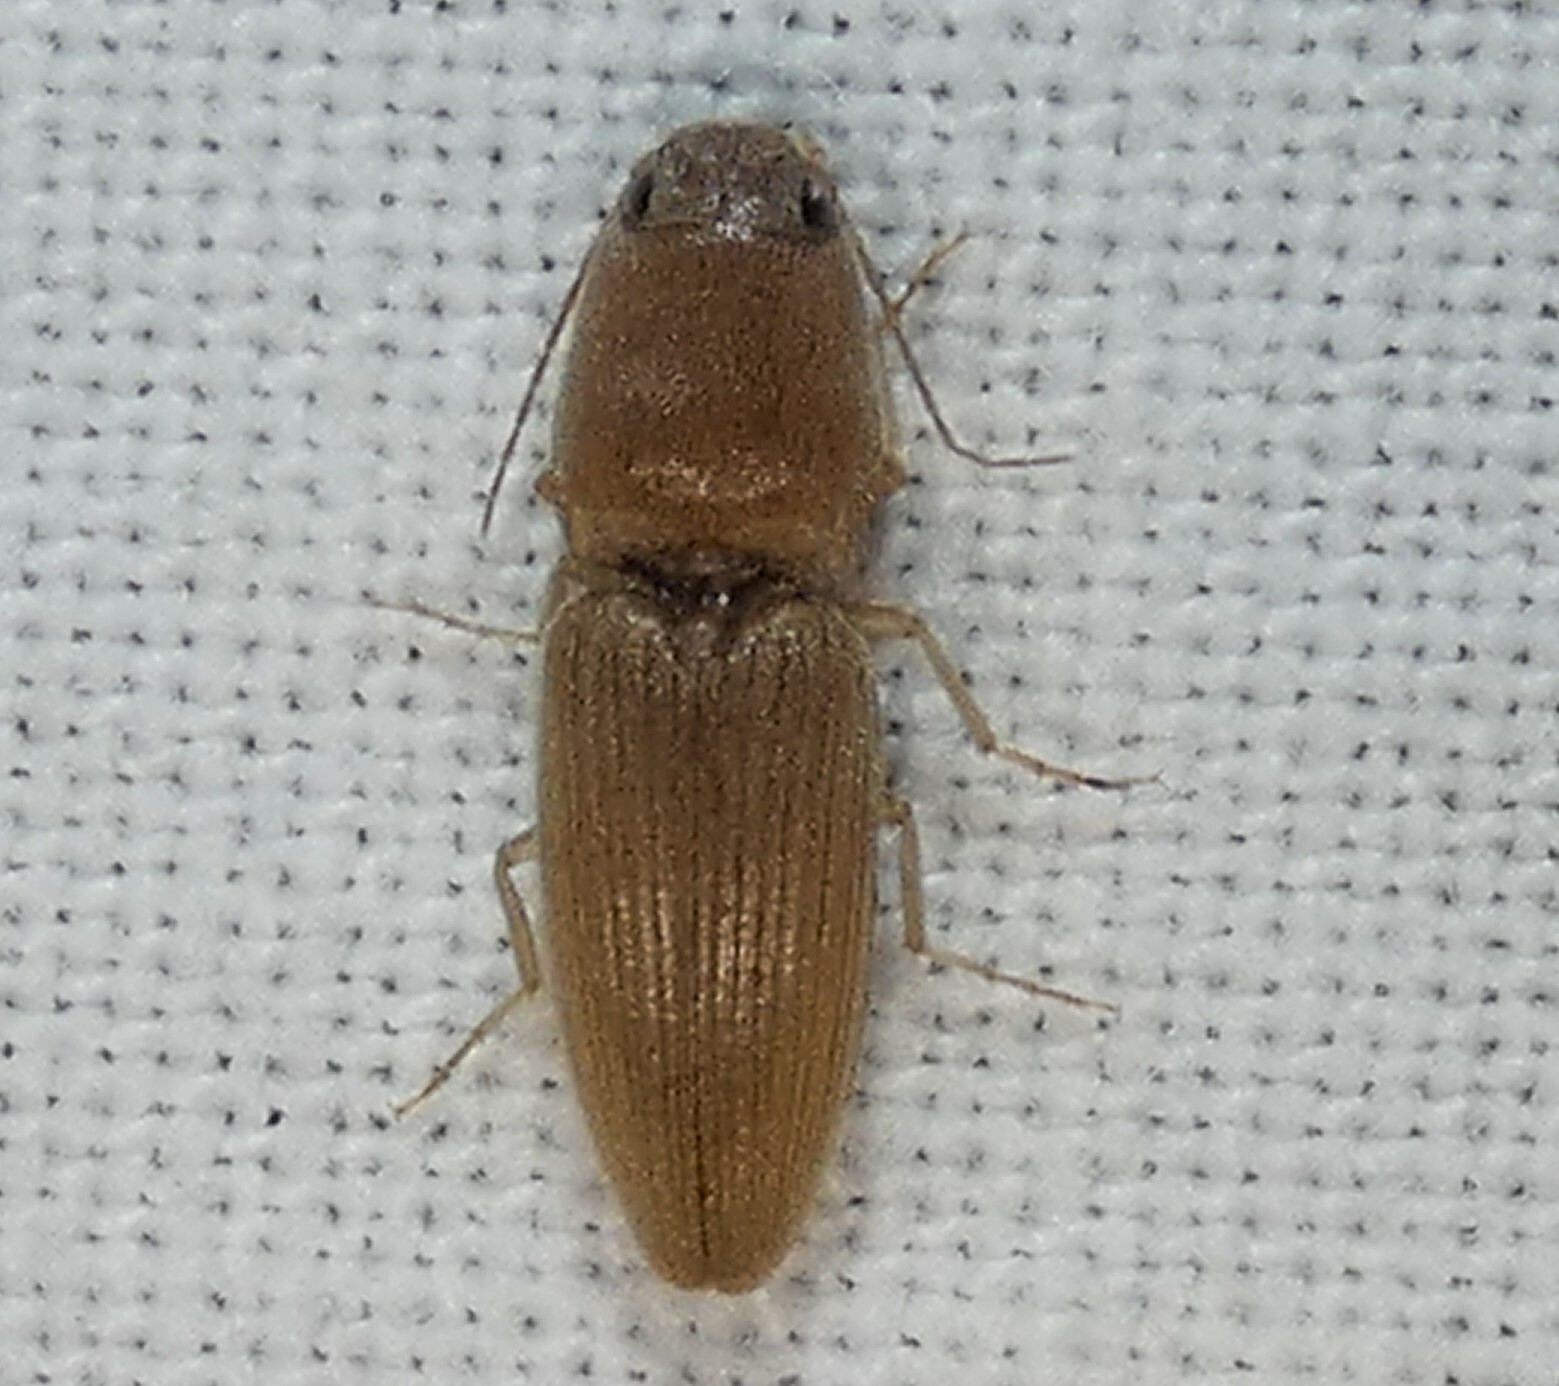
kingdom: Animalia
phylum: Arthropoda
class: Insecta
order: Coleoptera
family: Elateridae
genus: Monocrepidius
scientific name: Monocrepidius scissus
